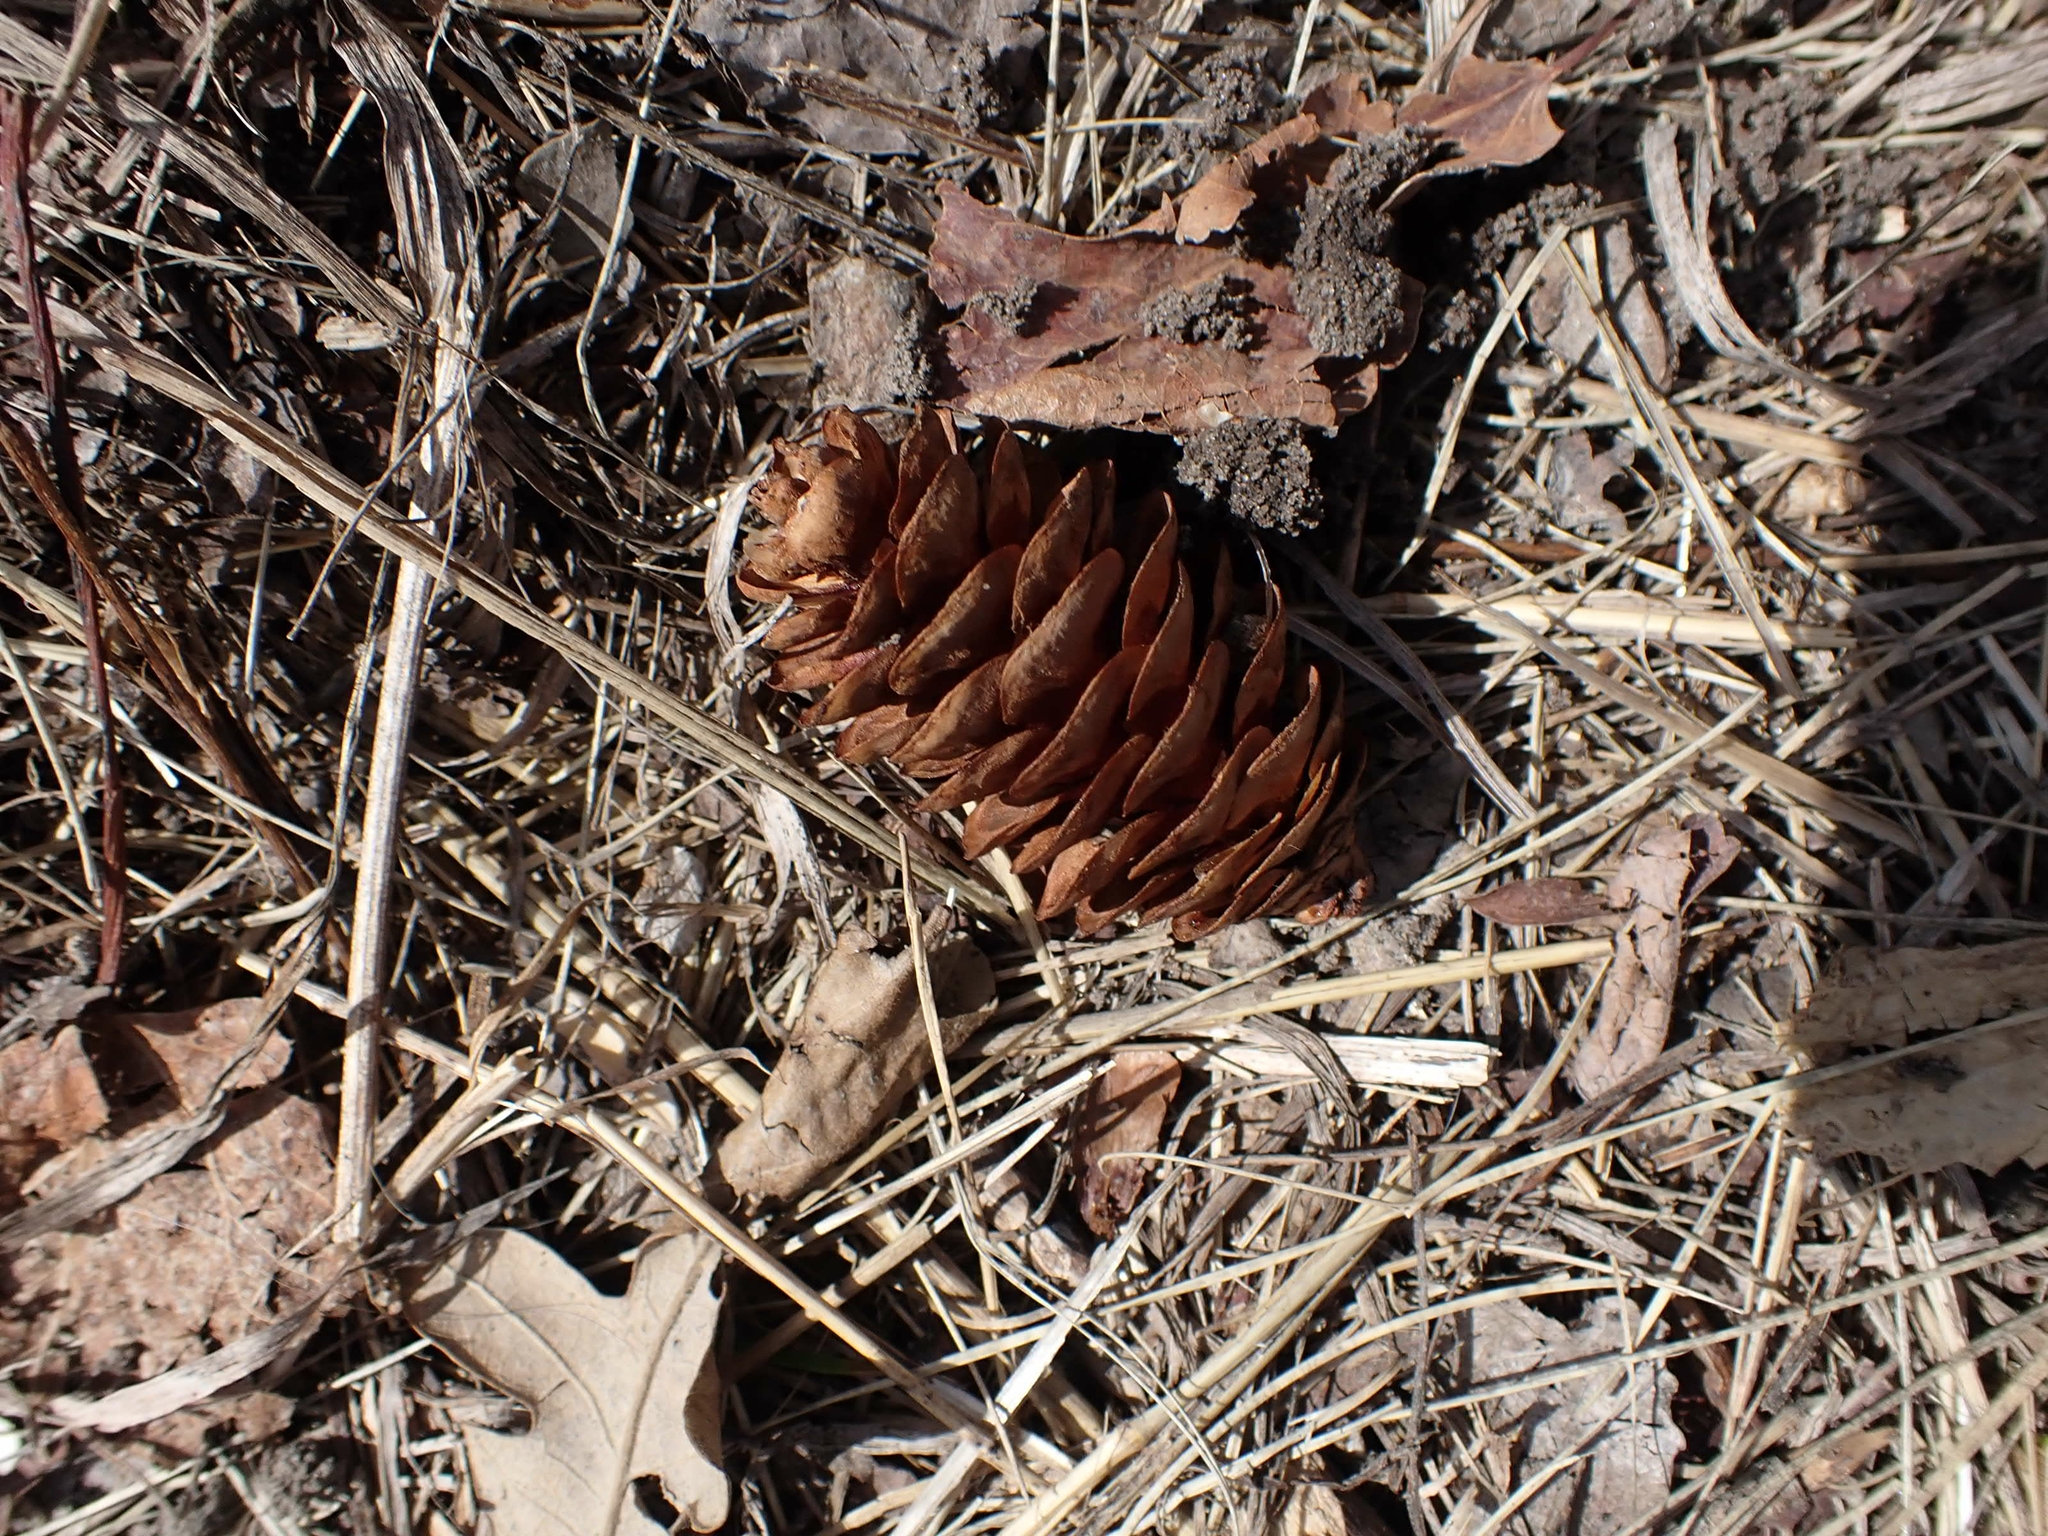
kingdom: Plantae
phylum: Tracheophyta
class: Pinopsida
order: Pinales
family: Pinaceae
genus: Picea
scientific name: Picea glauca
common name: White spruce
